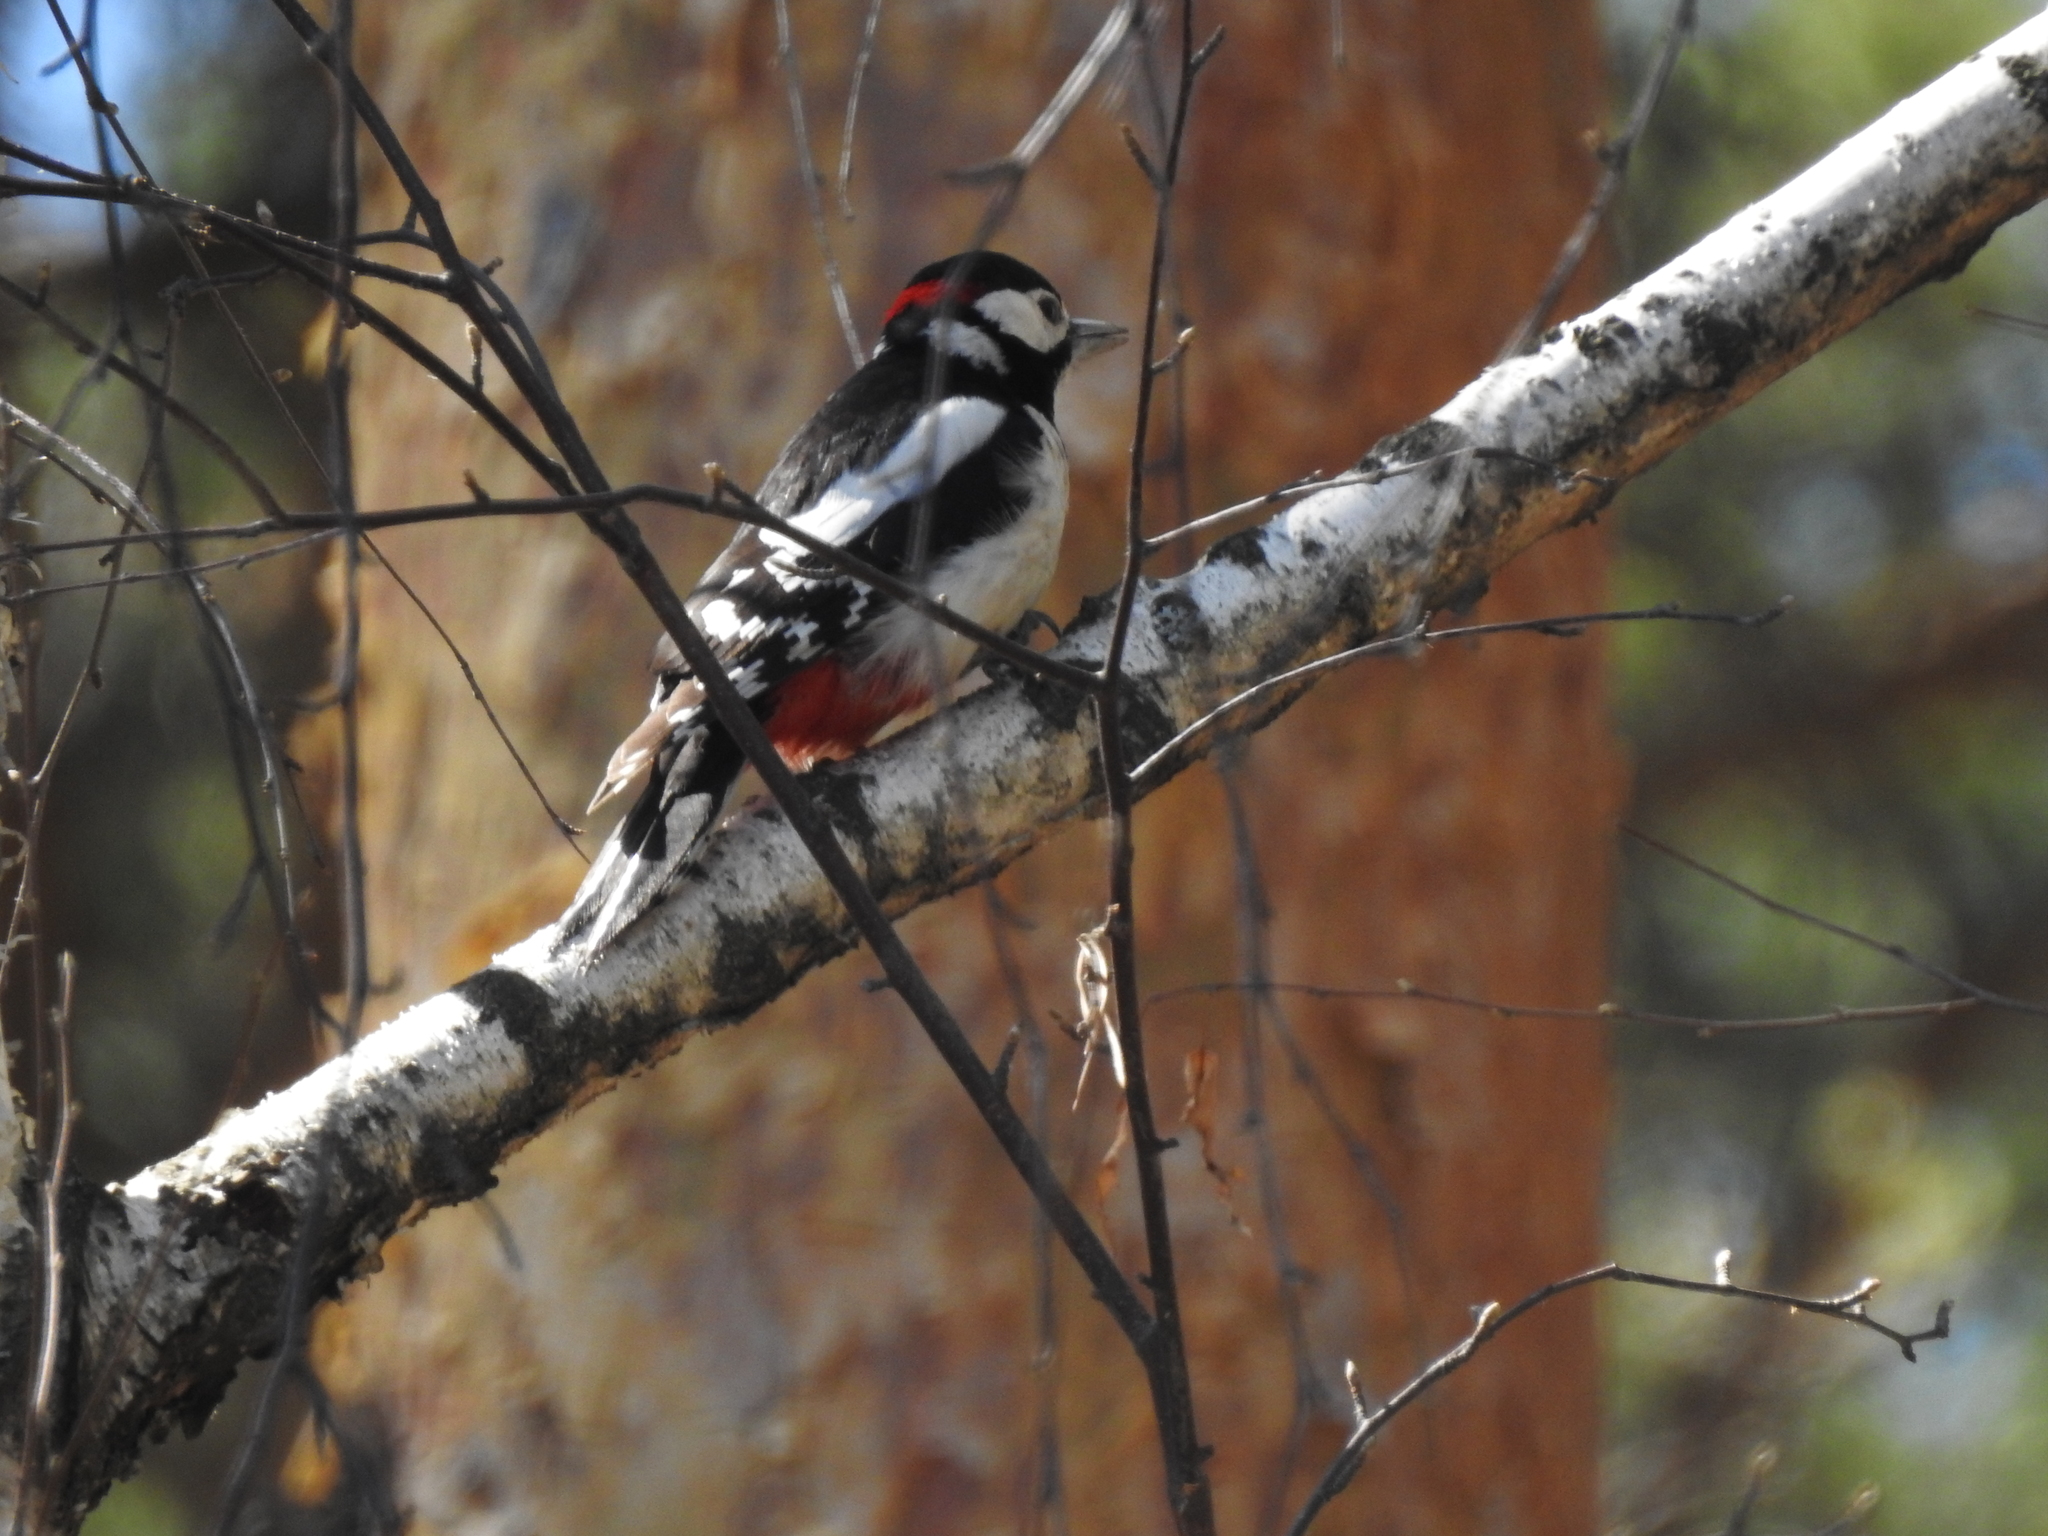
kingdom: Animalia
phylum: Chordata
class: Aves
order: Piciformes
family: Picidae
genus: Dendrocopos
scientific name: Dendrocopos major
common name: Great spotted woodpecker
